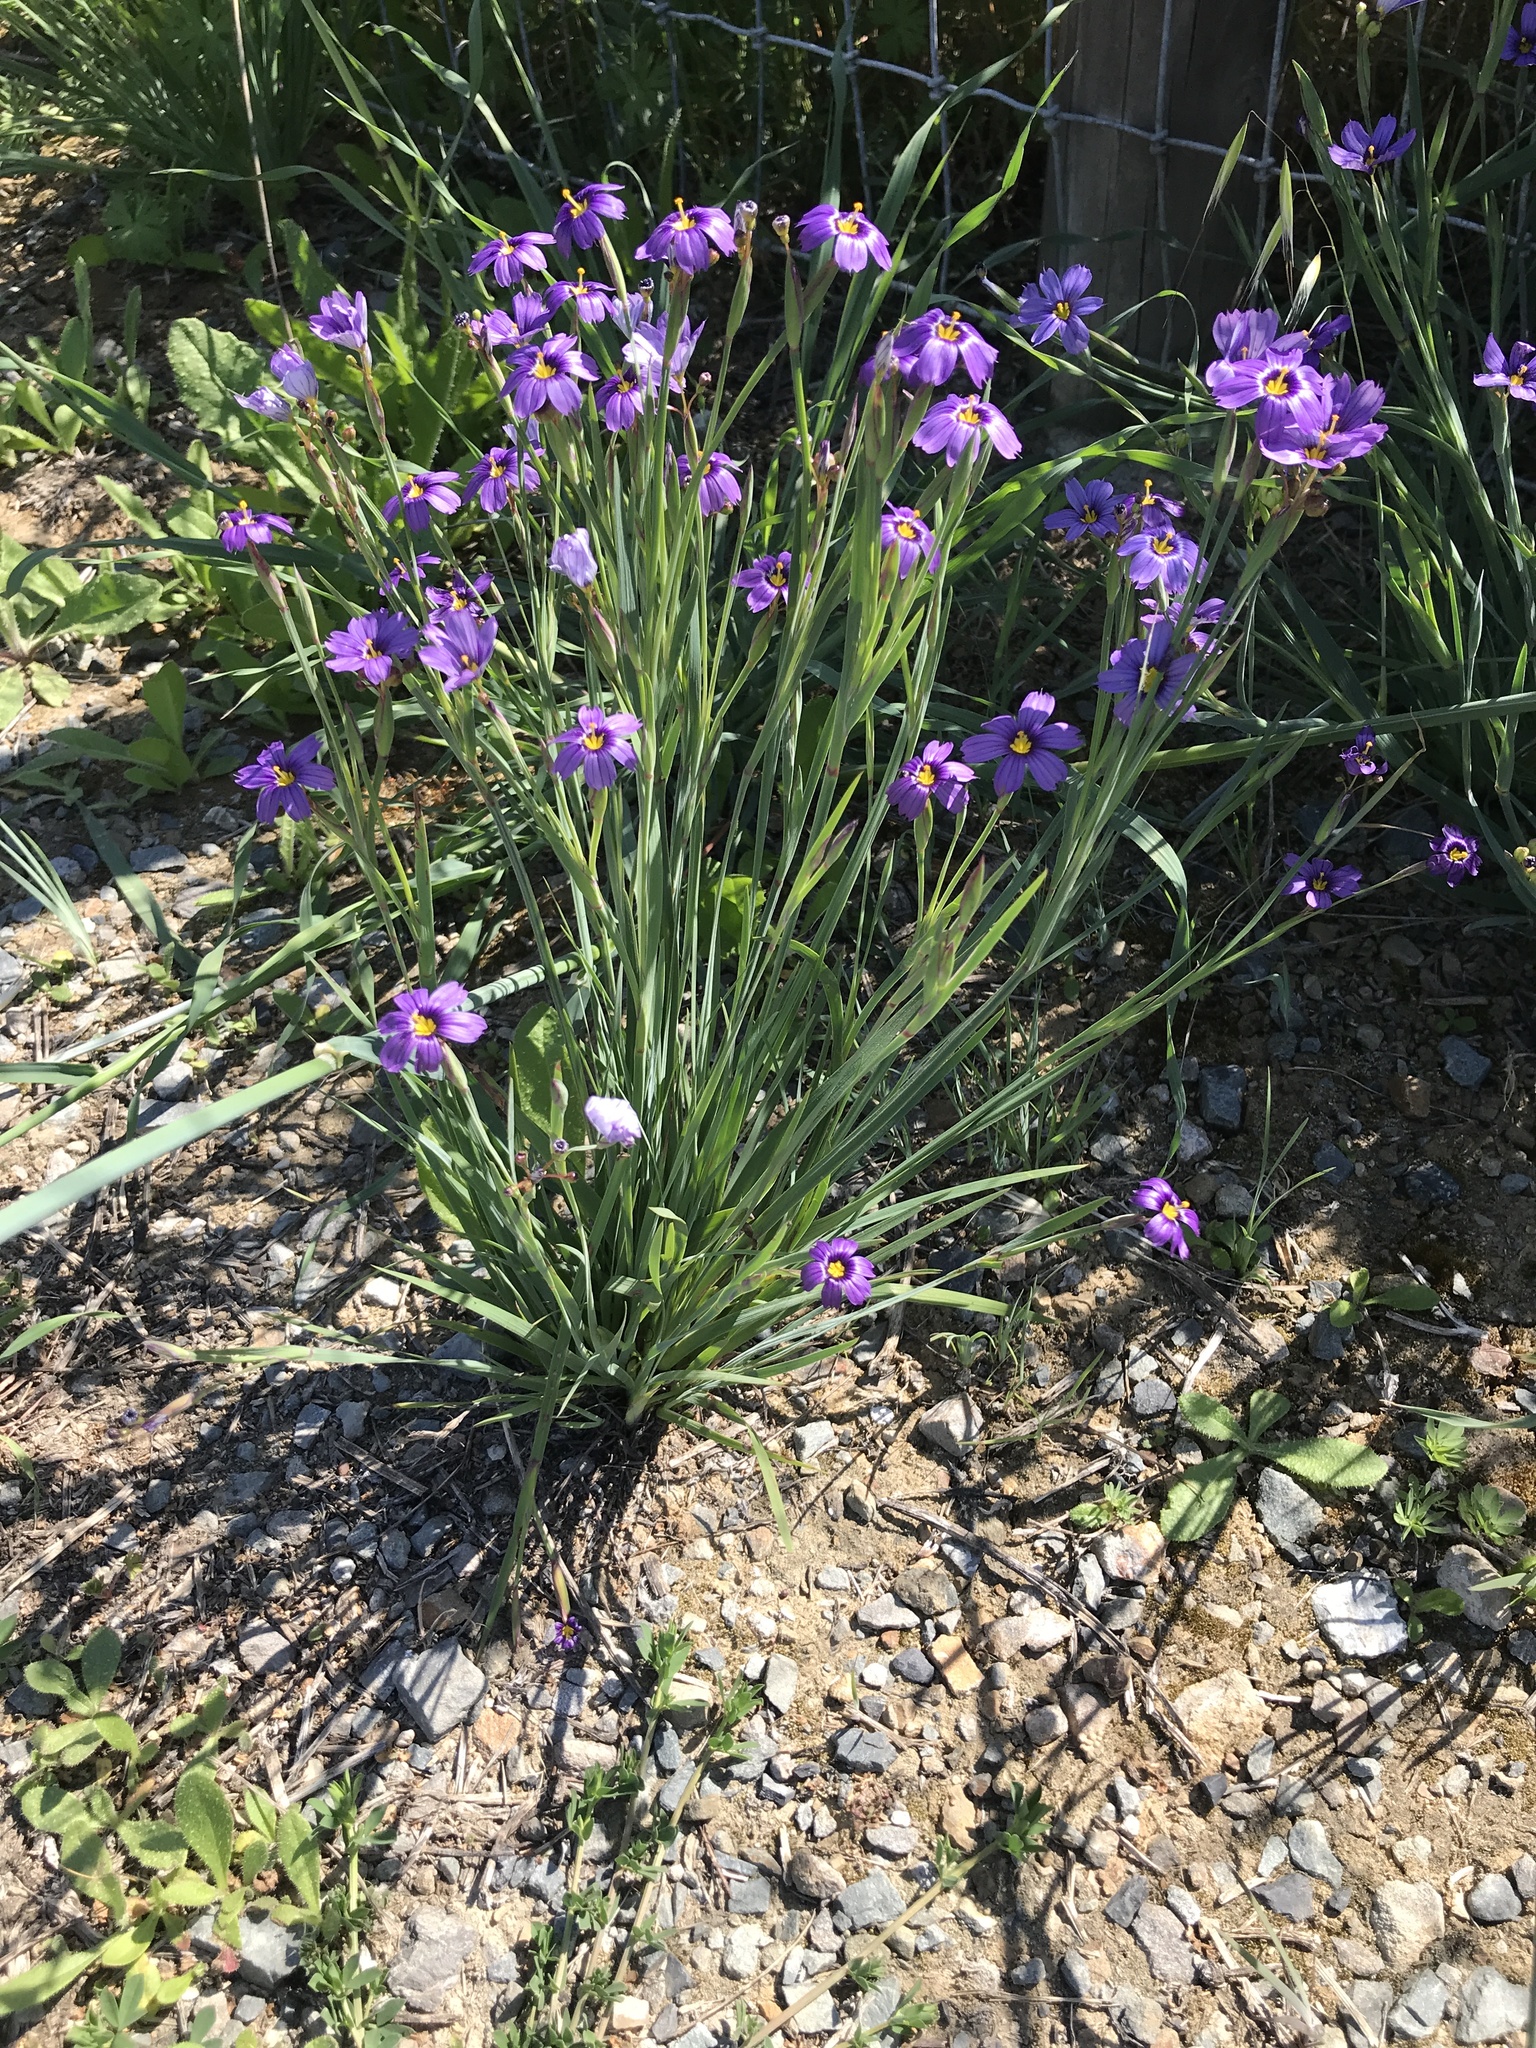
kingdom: Plantae
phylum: Tracheophyta
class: Liliopsida
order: Asparagales
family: Iridaceae
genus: Sisyrinchium
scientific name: Sisyrinchium bellum
